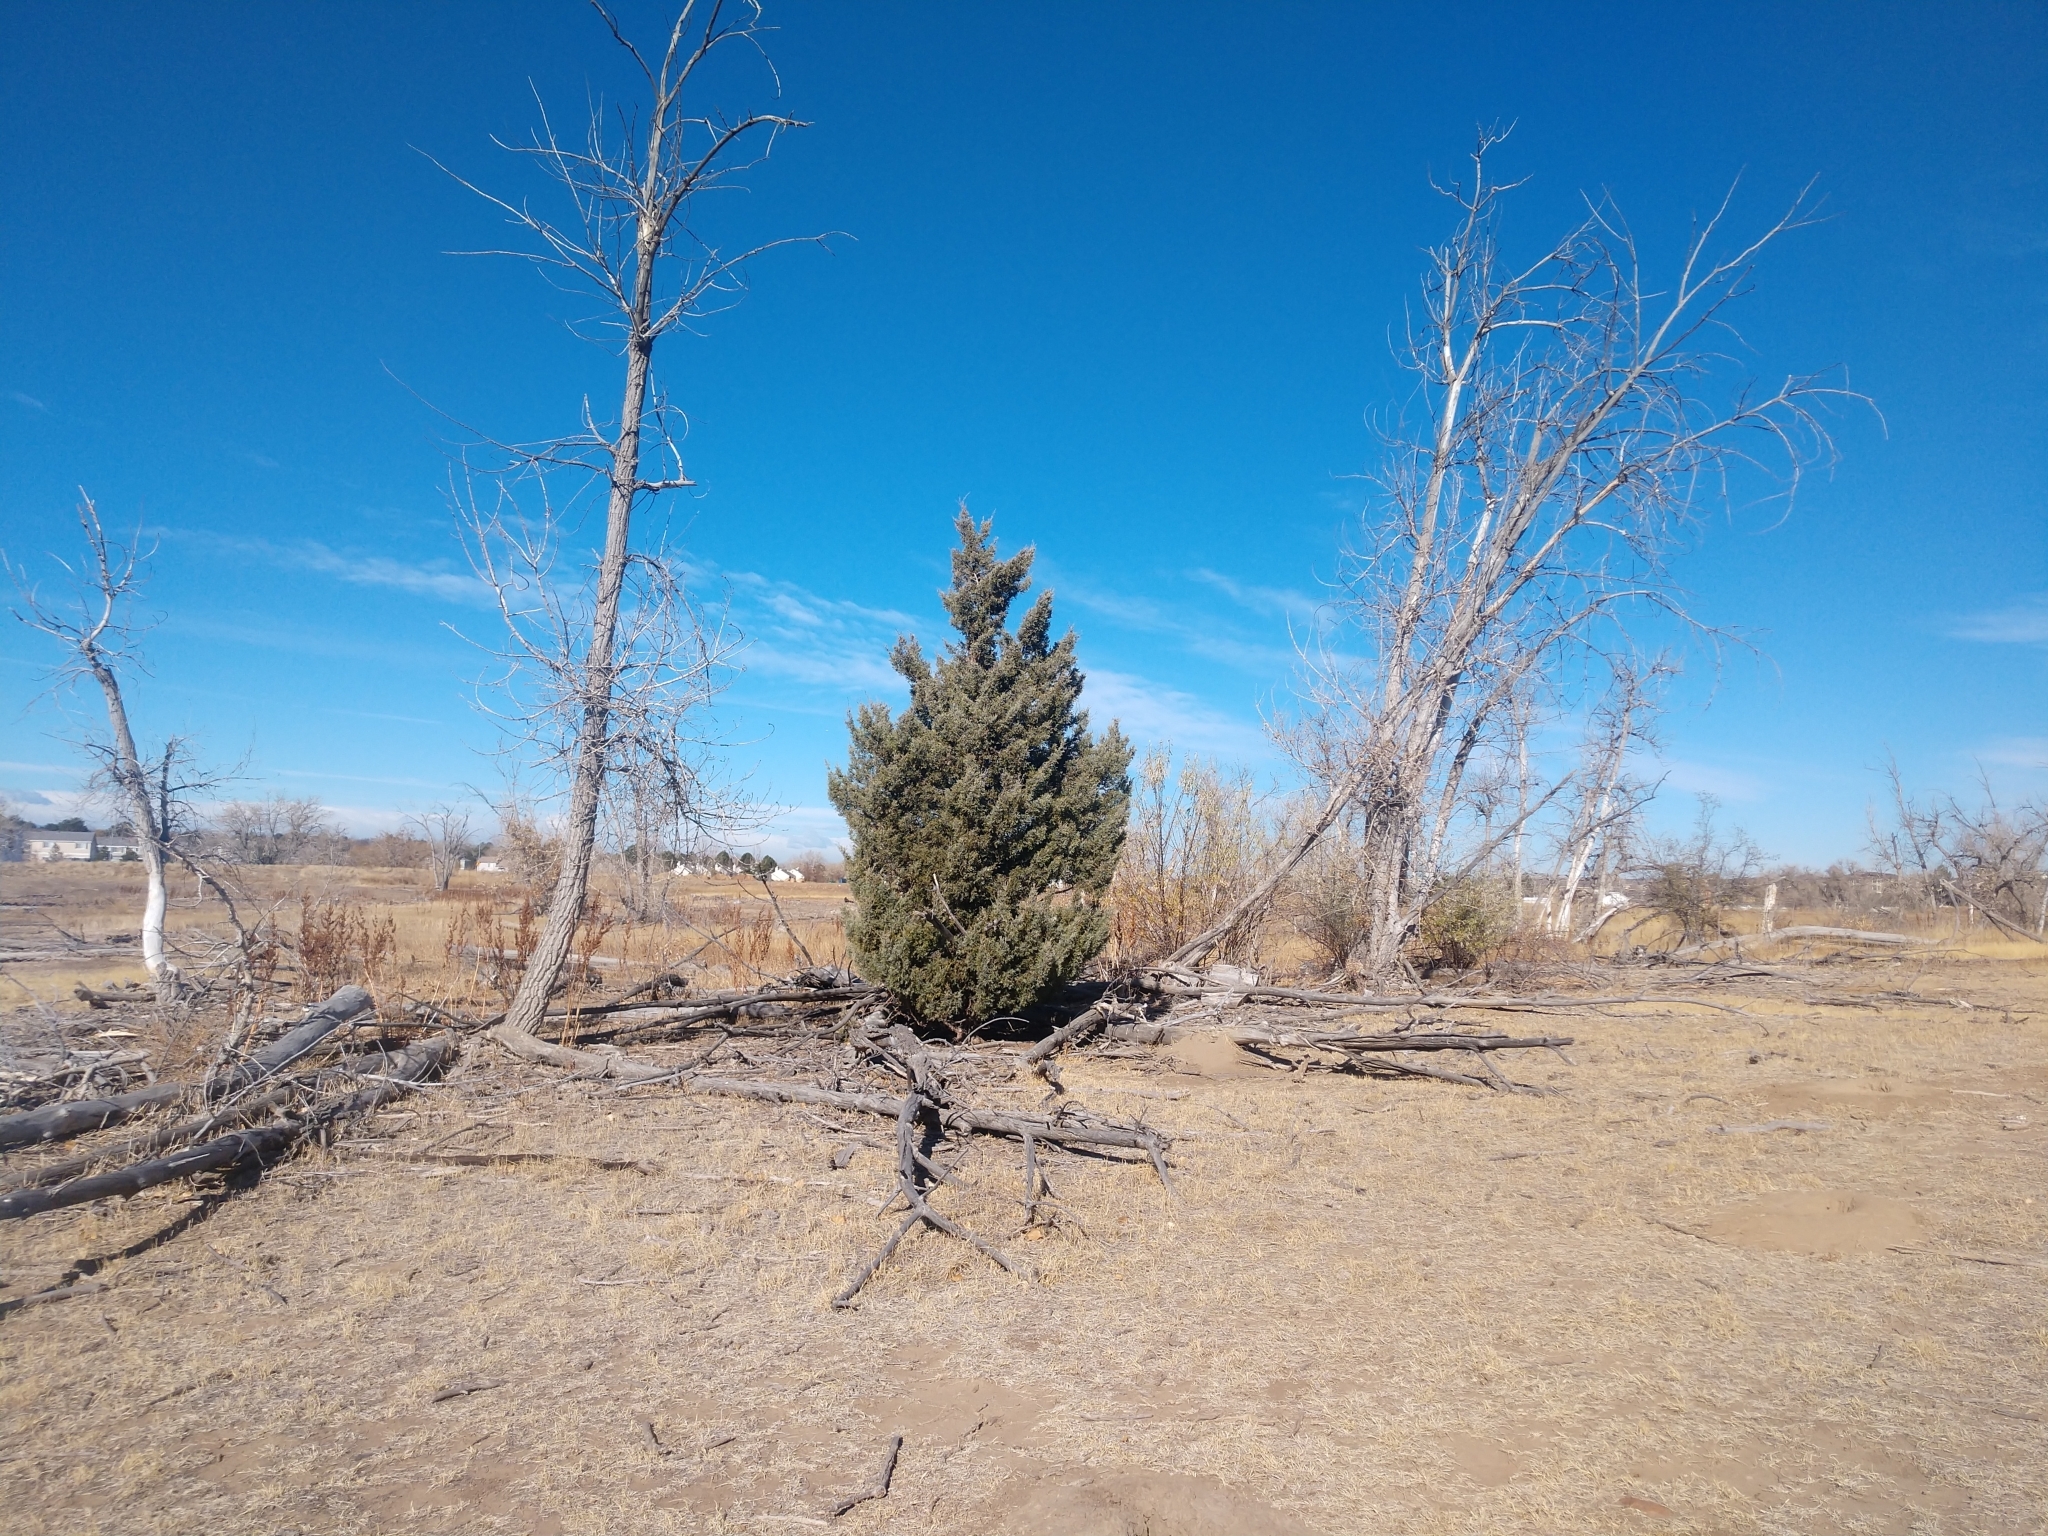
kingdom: Plantae
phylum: Tracheophyta
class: Pinopsida
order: Pinales
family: Cupressaceae
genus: Juniperus
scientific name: Juniperus scopulorum
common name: Rocky mountain juniper
